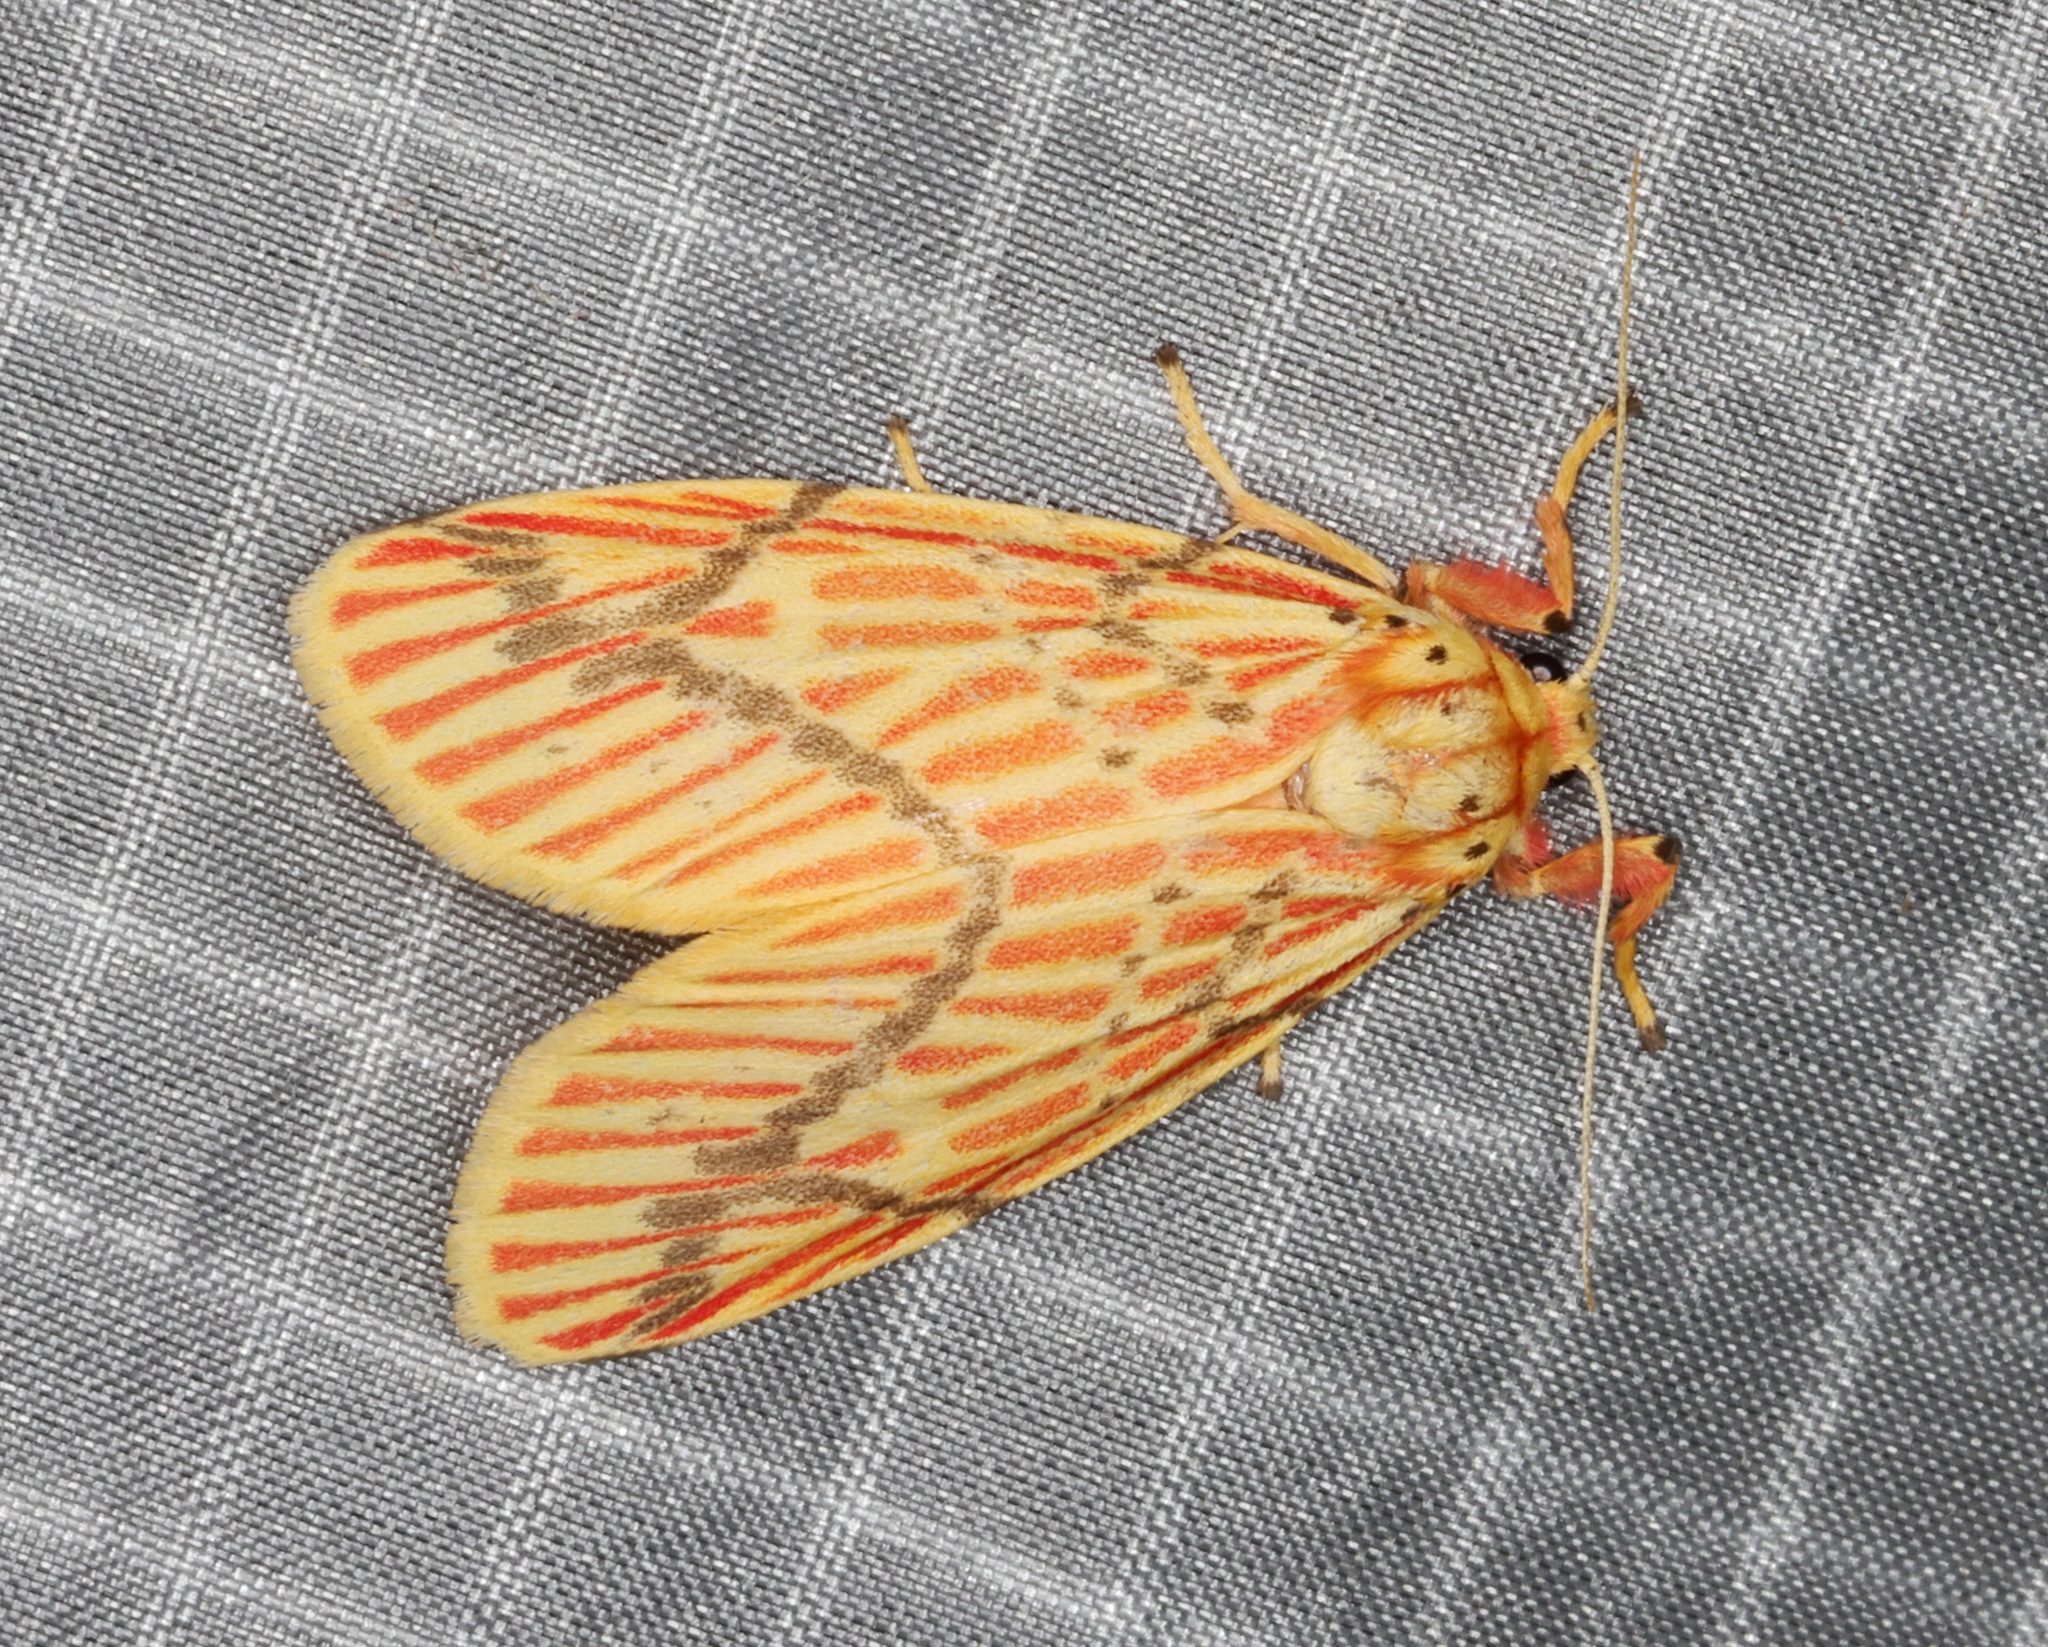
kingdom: Animalia
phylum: Arthropoda
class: Insecta
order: Lepidoptera
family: Erebidae
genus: Barsine
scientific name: Barsine striata
